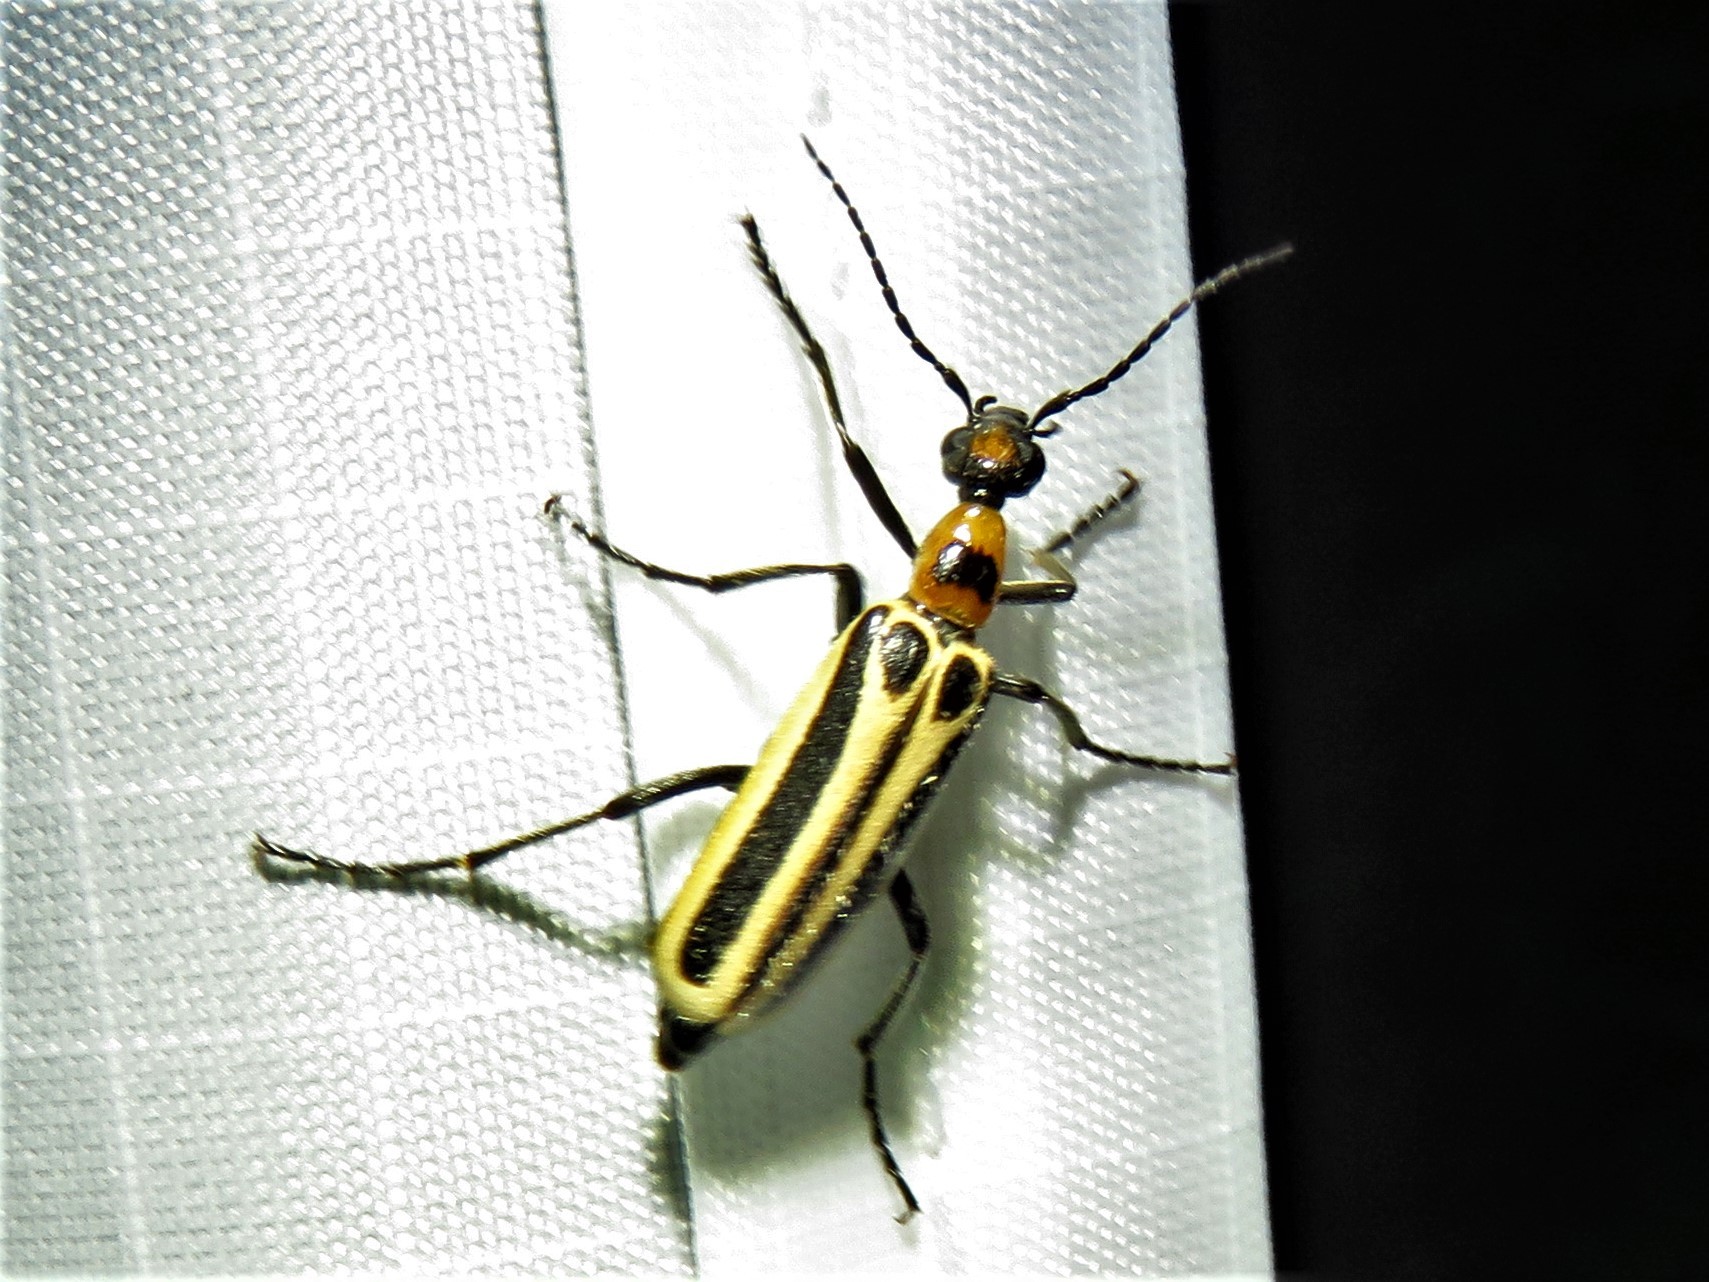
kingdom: Animalia
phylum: Arthropoda
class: Insecta
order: Coleoptera
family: Meloidae
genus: Pyrota
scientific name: Pyrota invita
